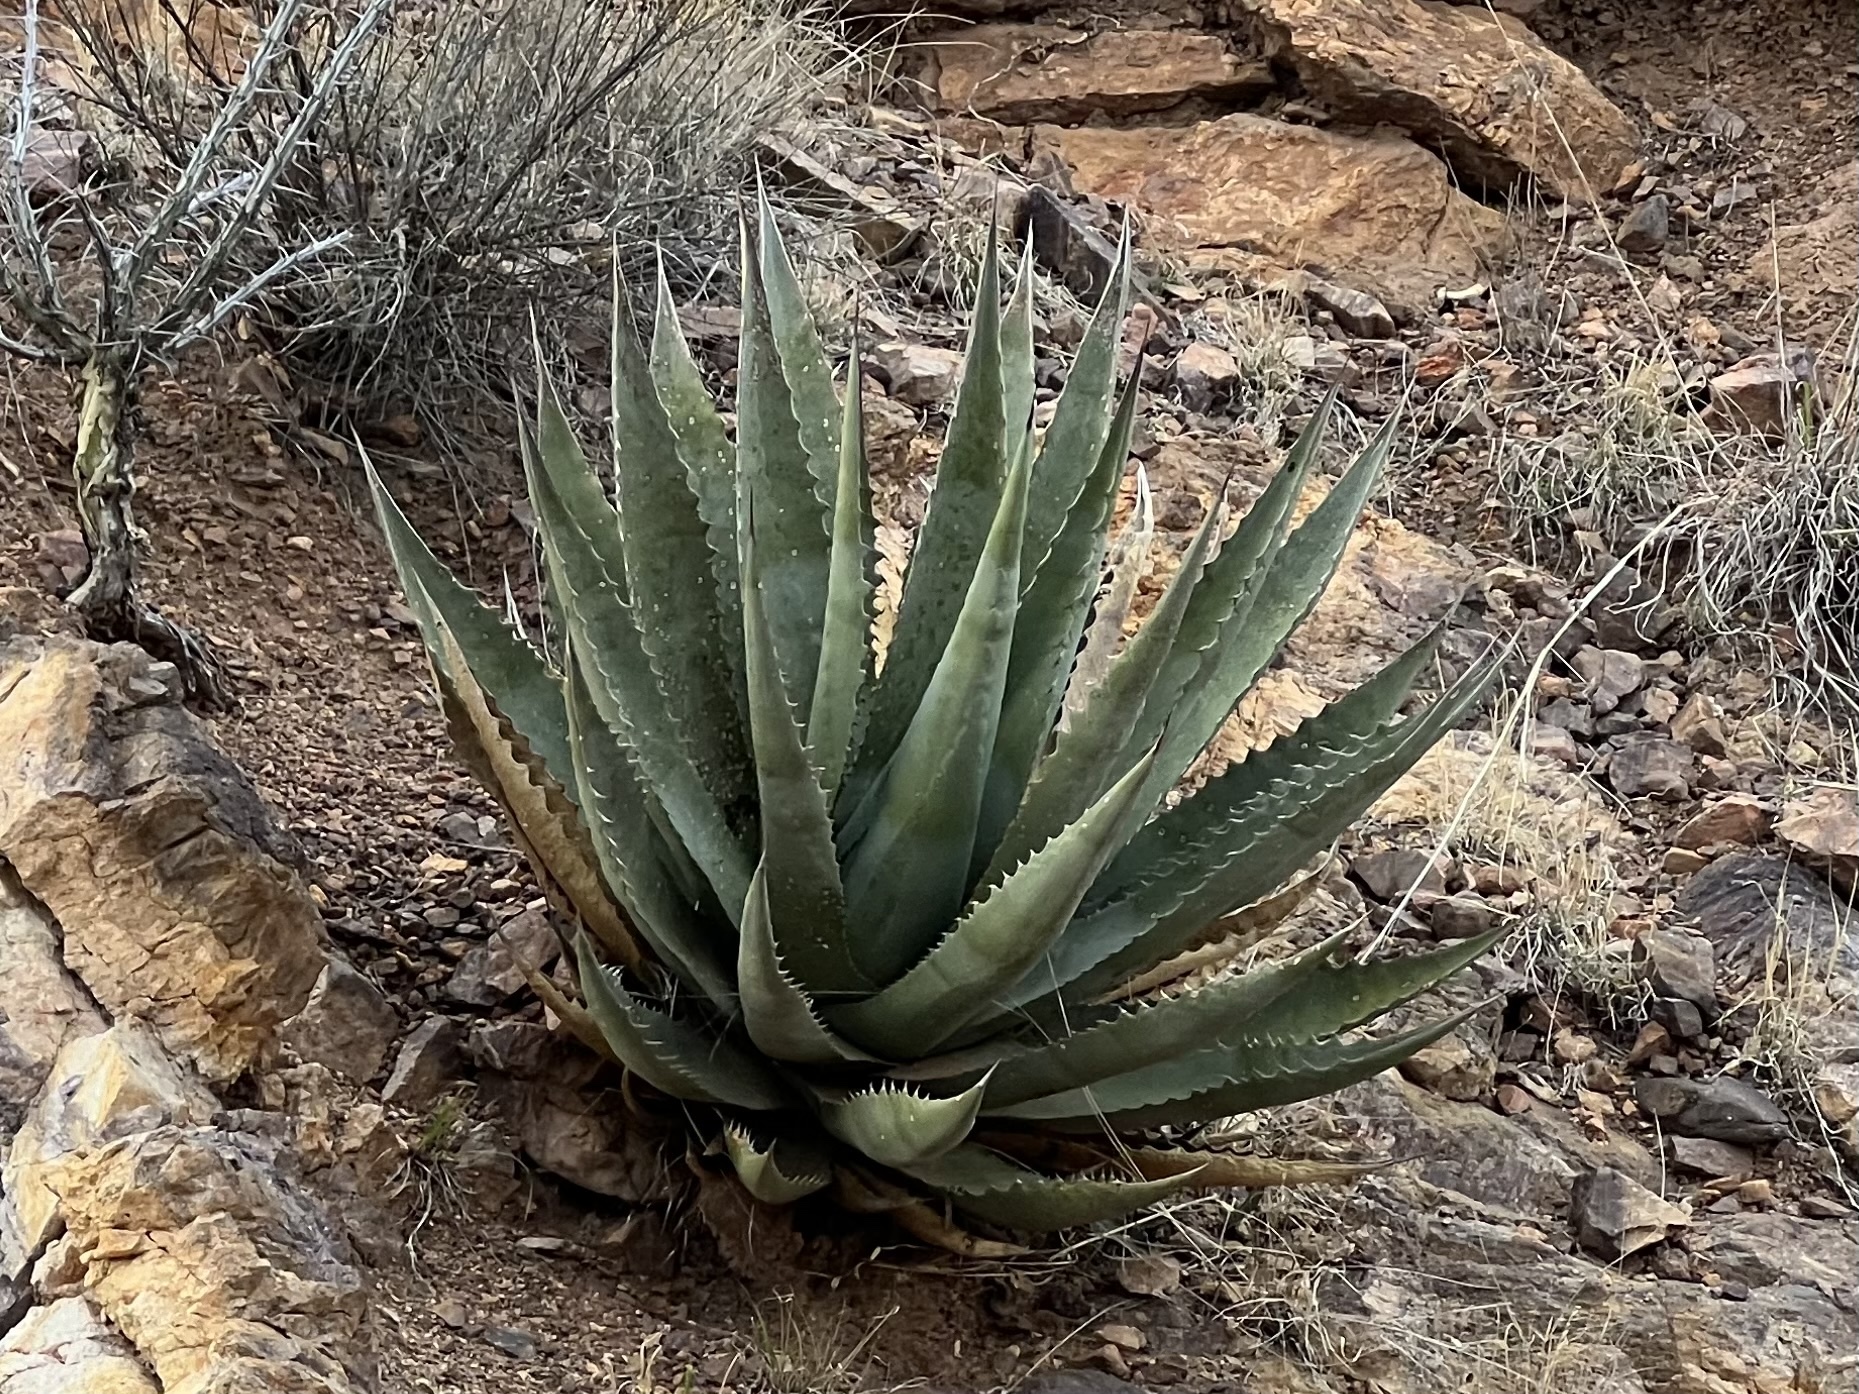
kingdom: Plantae
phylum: Tracheophyta
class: Liliopsida
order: Asparagales
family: Asparagaceae
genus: Agave
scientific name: Agave palmeri
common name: Palmer agave
